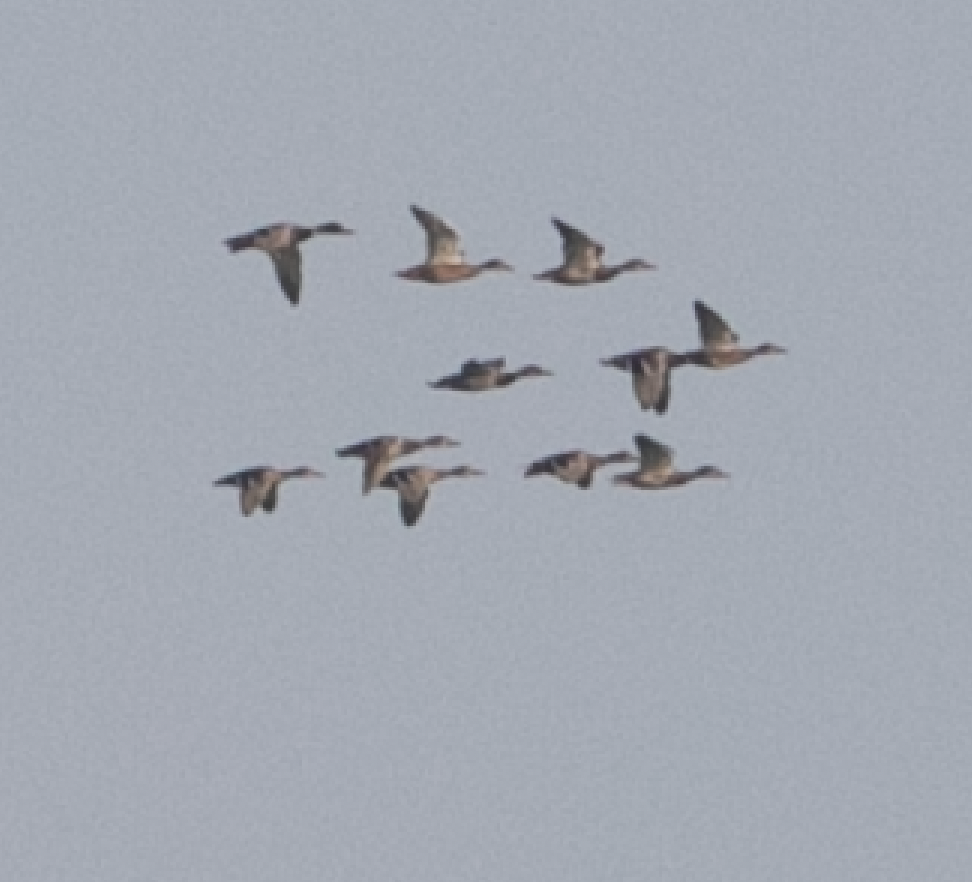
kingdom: Animalia
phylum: Chordata
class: Aves
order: Anseriformes
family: Anatidae
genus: Anas
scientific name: Anas platyrhynchos
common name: Mallard
